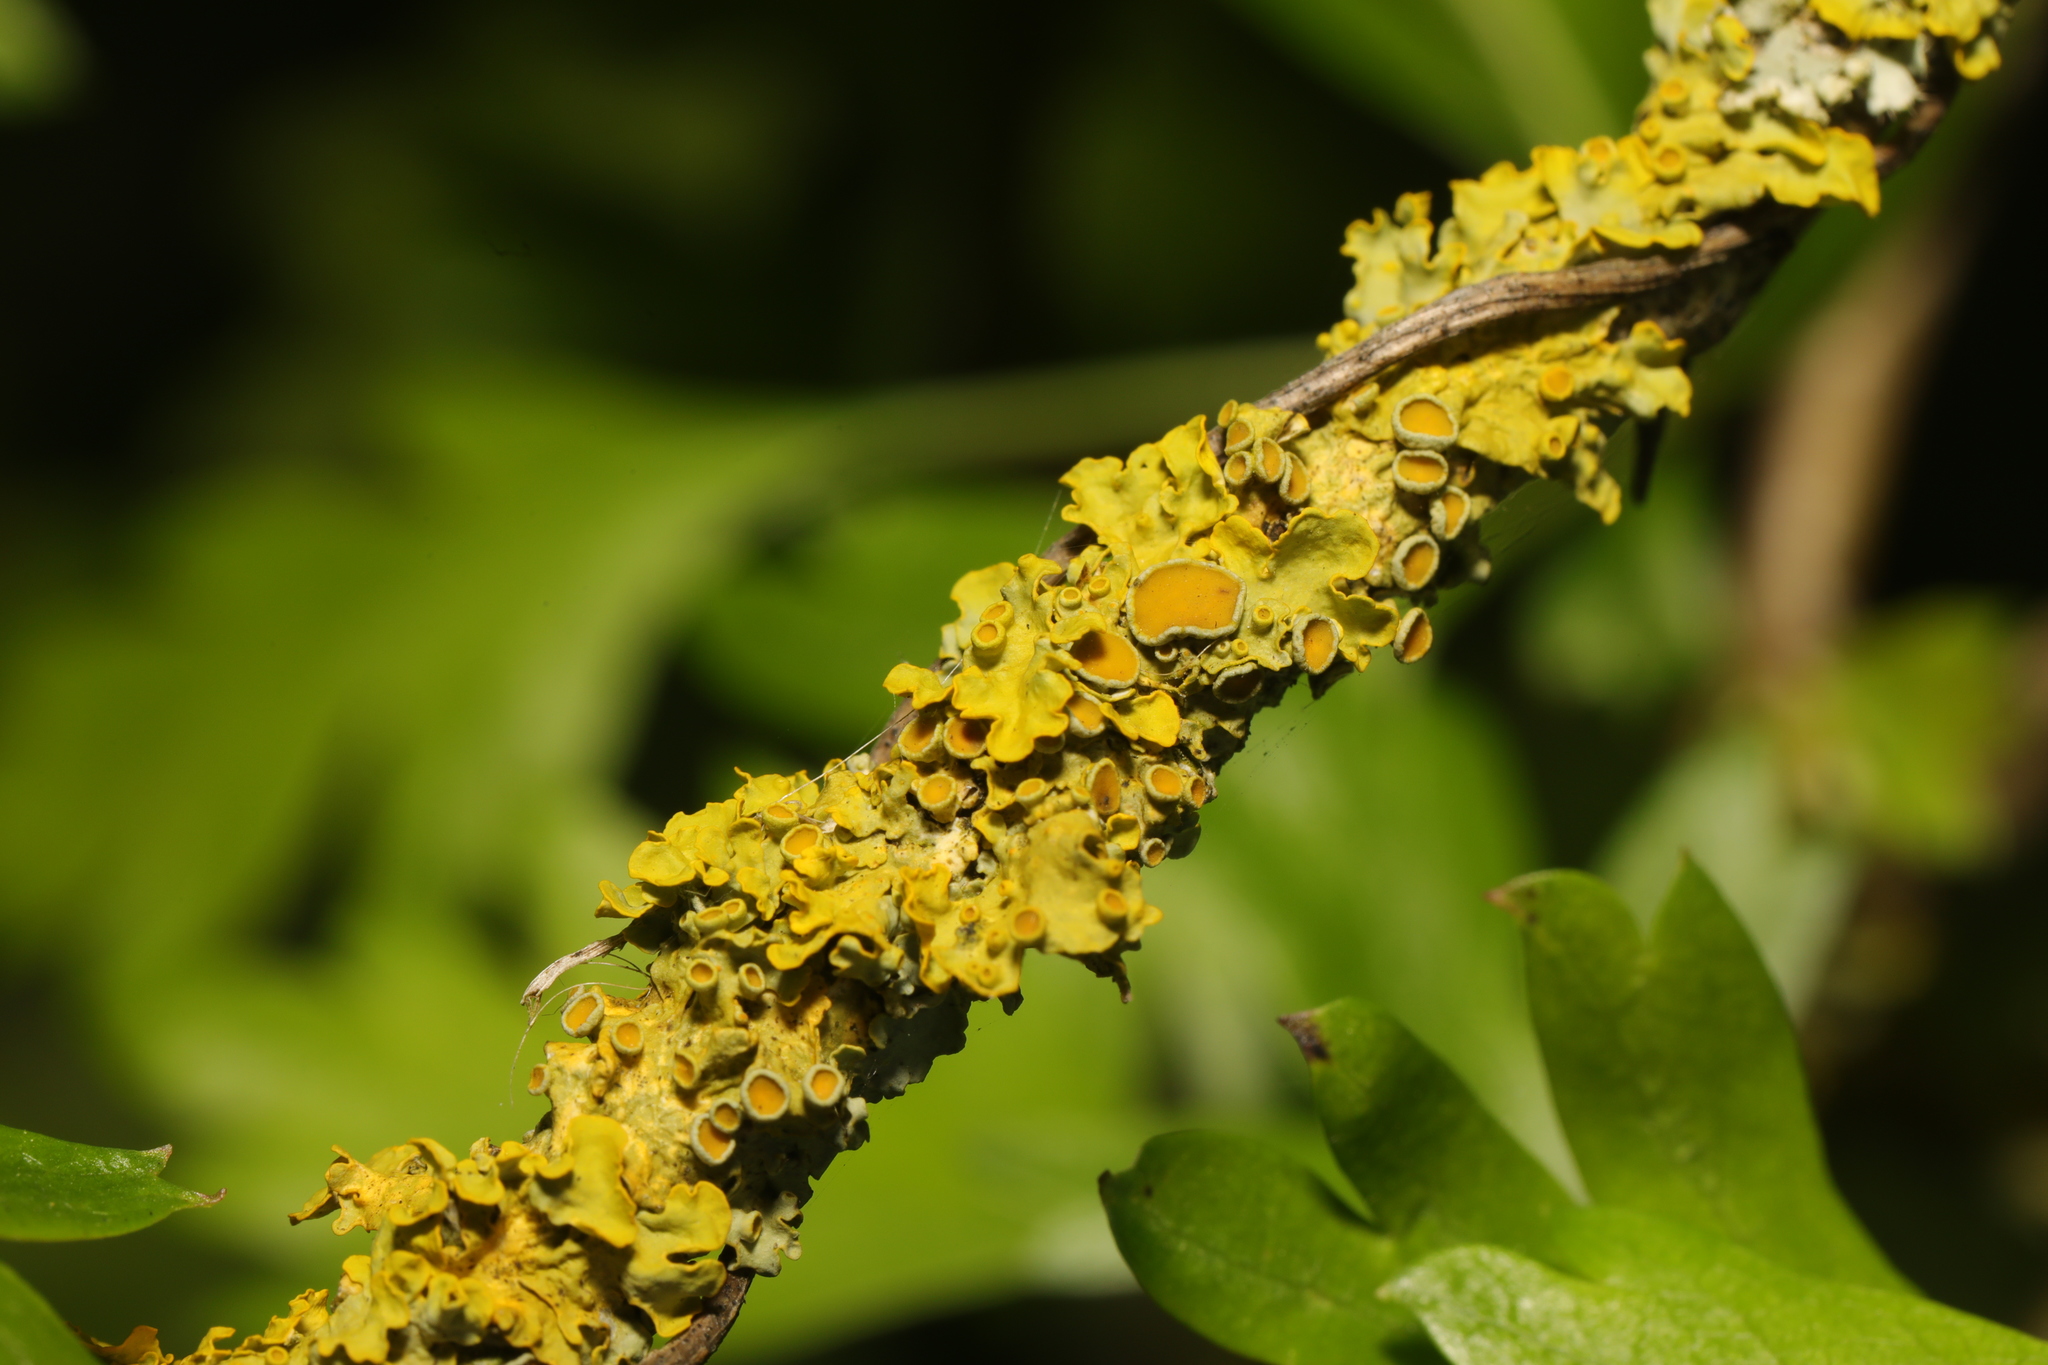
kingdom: Fungi
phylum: Ascomycota
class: Lecanoromycetes
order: Teloschistales
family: Teloschistaceae
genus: Xanthoria
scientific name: Xanthoria parietina
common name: Common orange lichen
